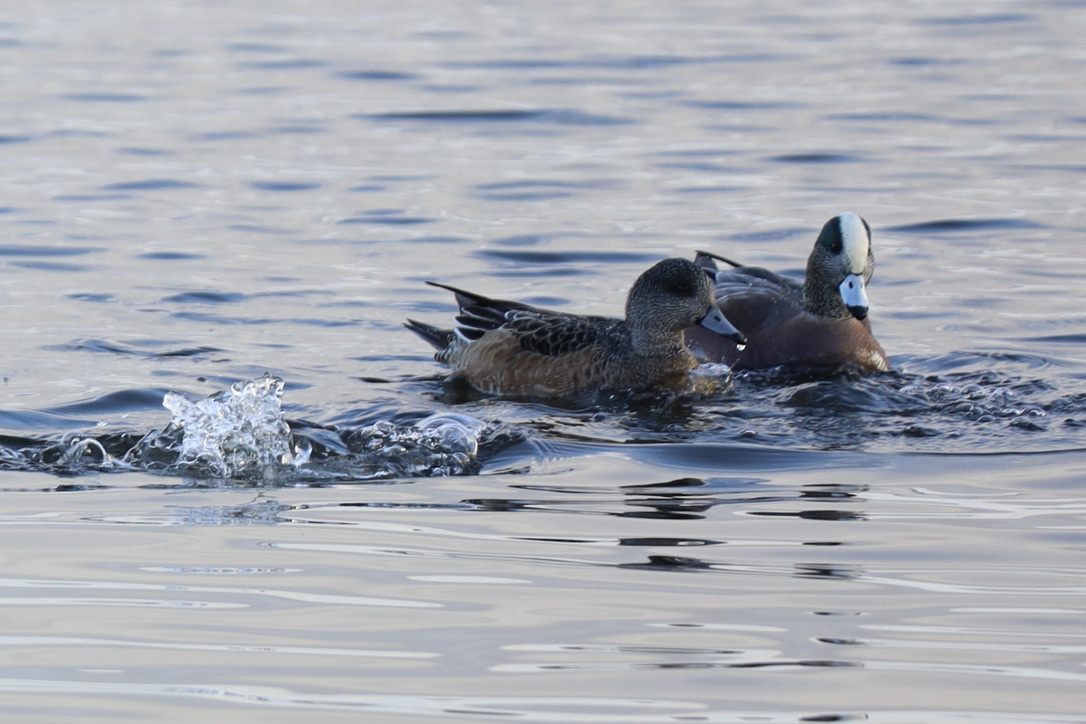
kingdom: Animalia
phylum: Chordata
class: Aves
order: Anseriformes
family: Anatidae
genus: Mareca
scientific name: Mareca americana
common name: American wigeon
